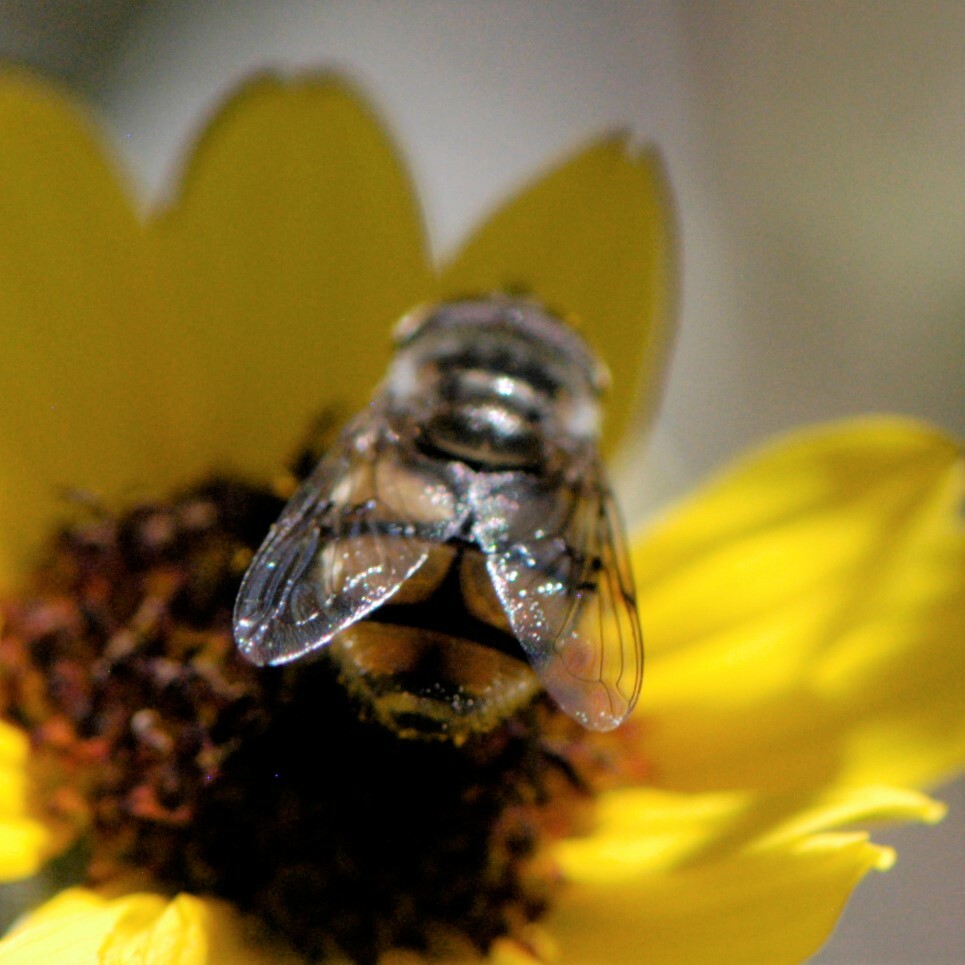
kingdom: Animalia
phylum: Arthropoda
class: Insecta
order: Diptera
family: Syrphidae
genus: Copestylum
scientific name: Copestylum avidum
